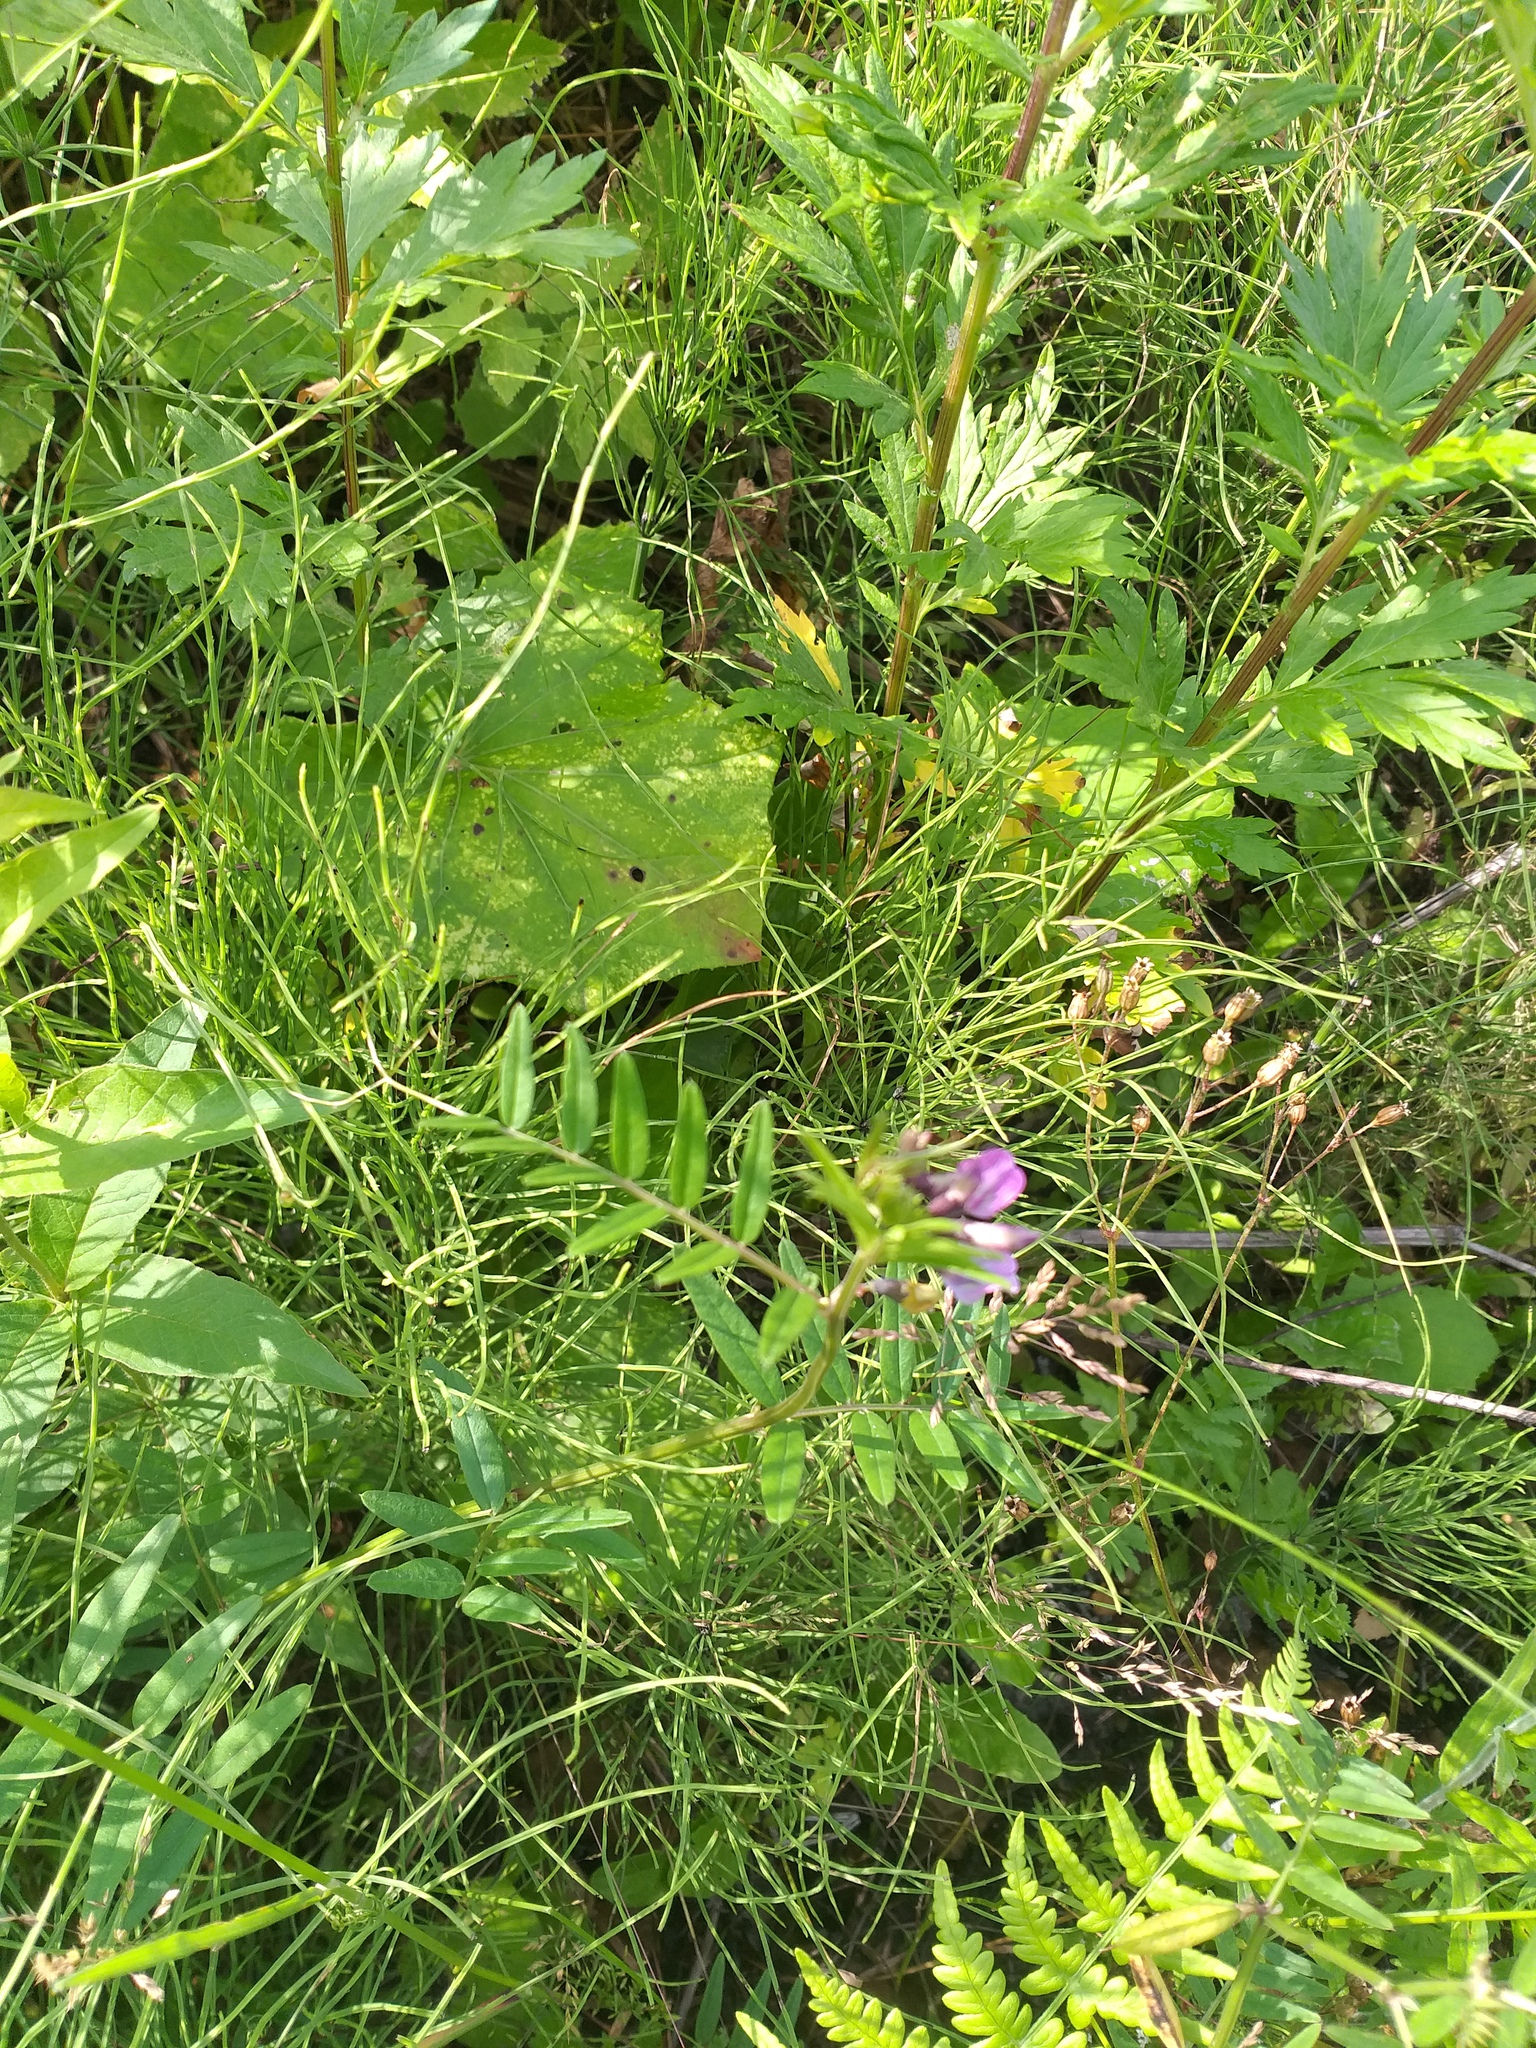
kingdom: Plantae
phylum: Tracheophyta
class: Magnoliopsida
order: Fabales
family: Fabaceae
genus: Vicia
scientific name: Vicia sepium
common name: Bush vetch
